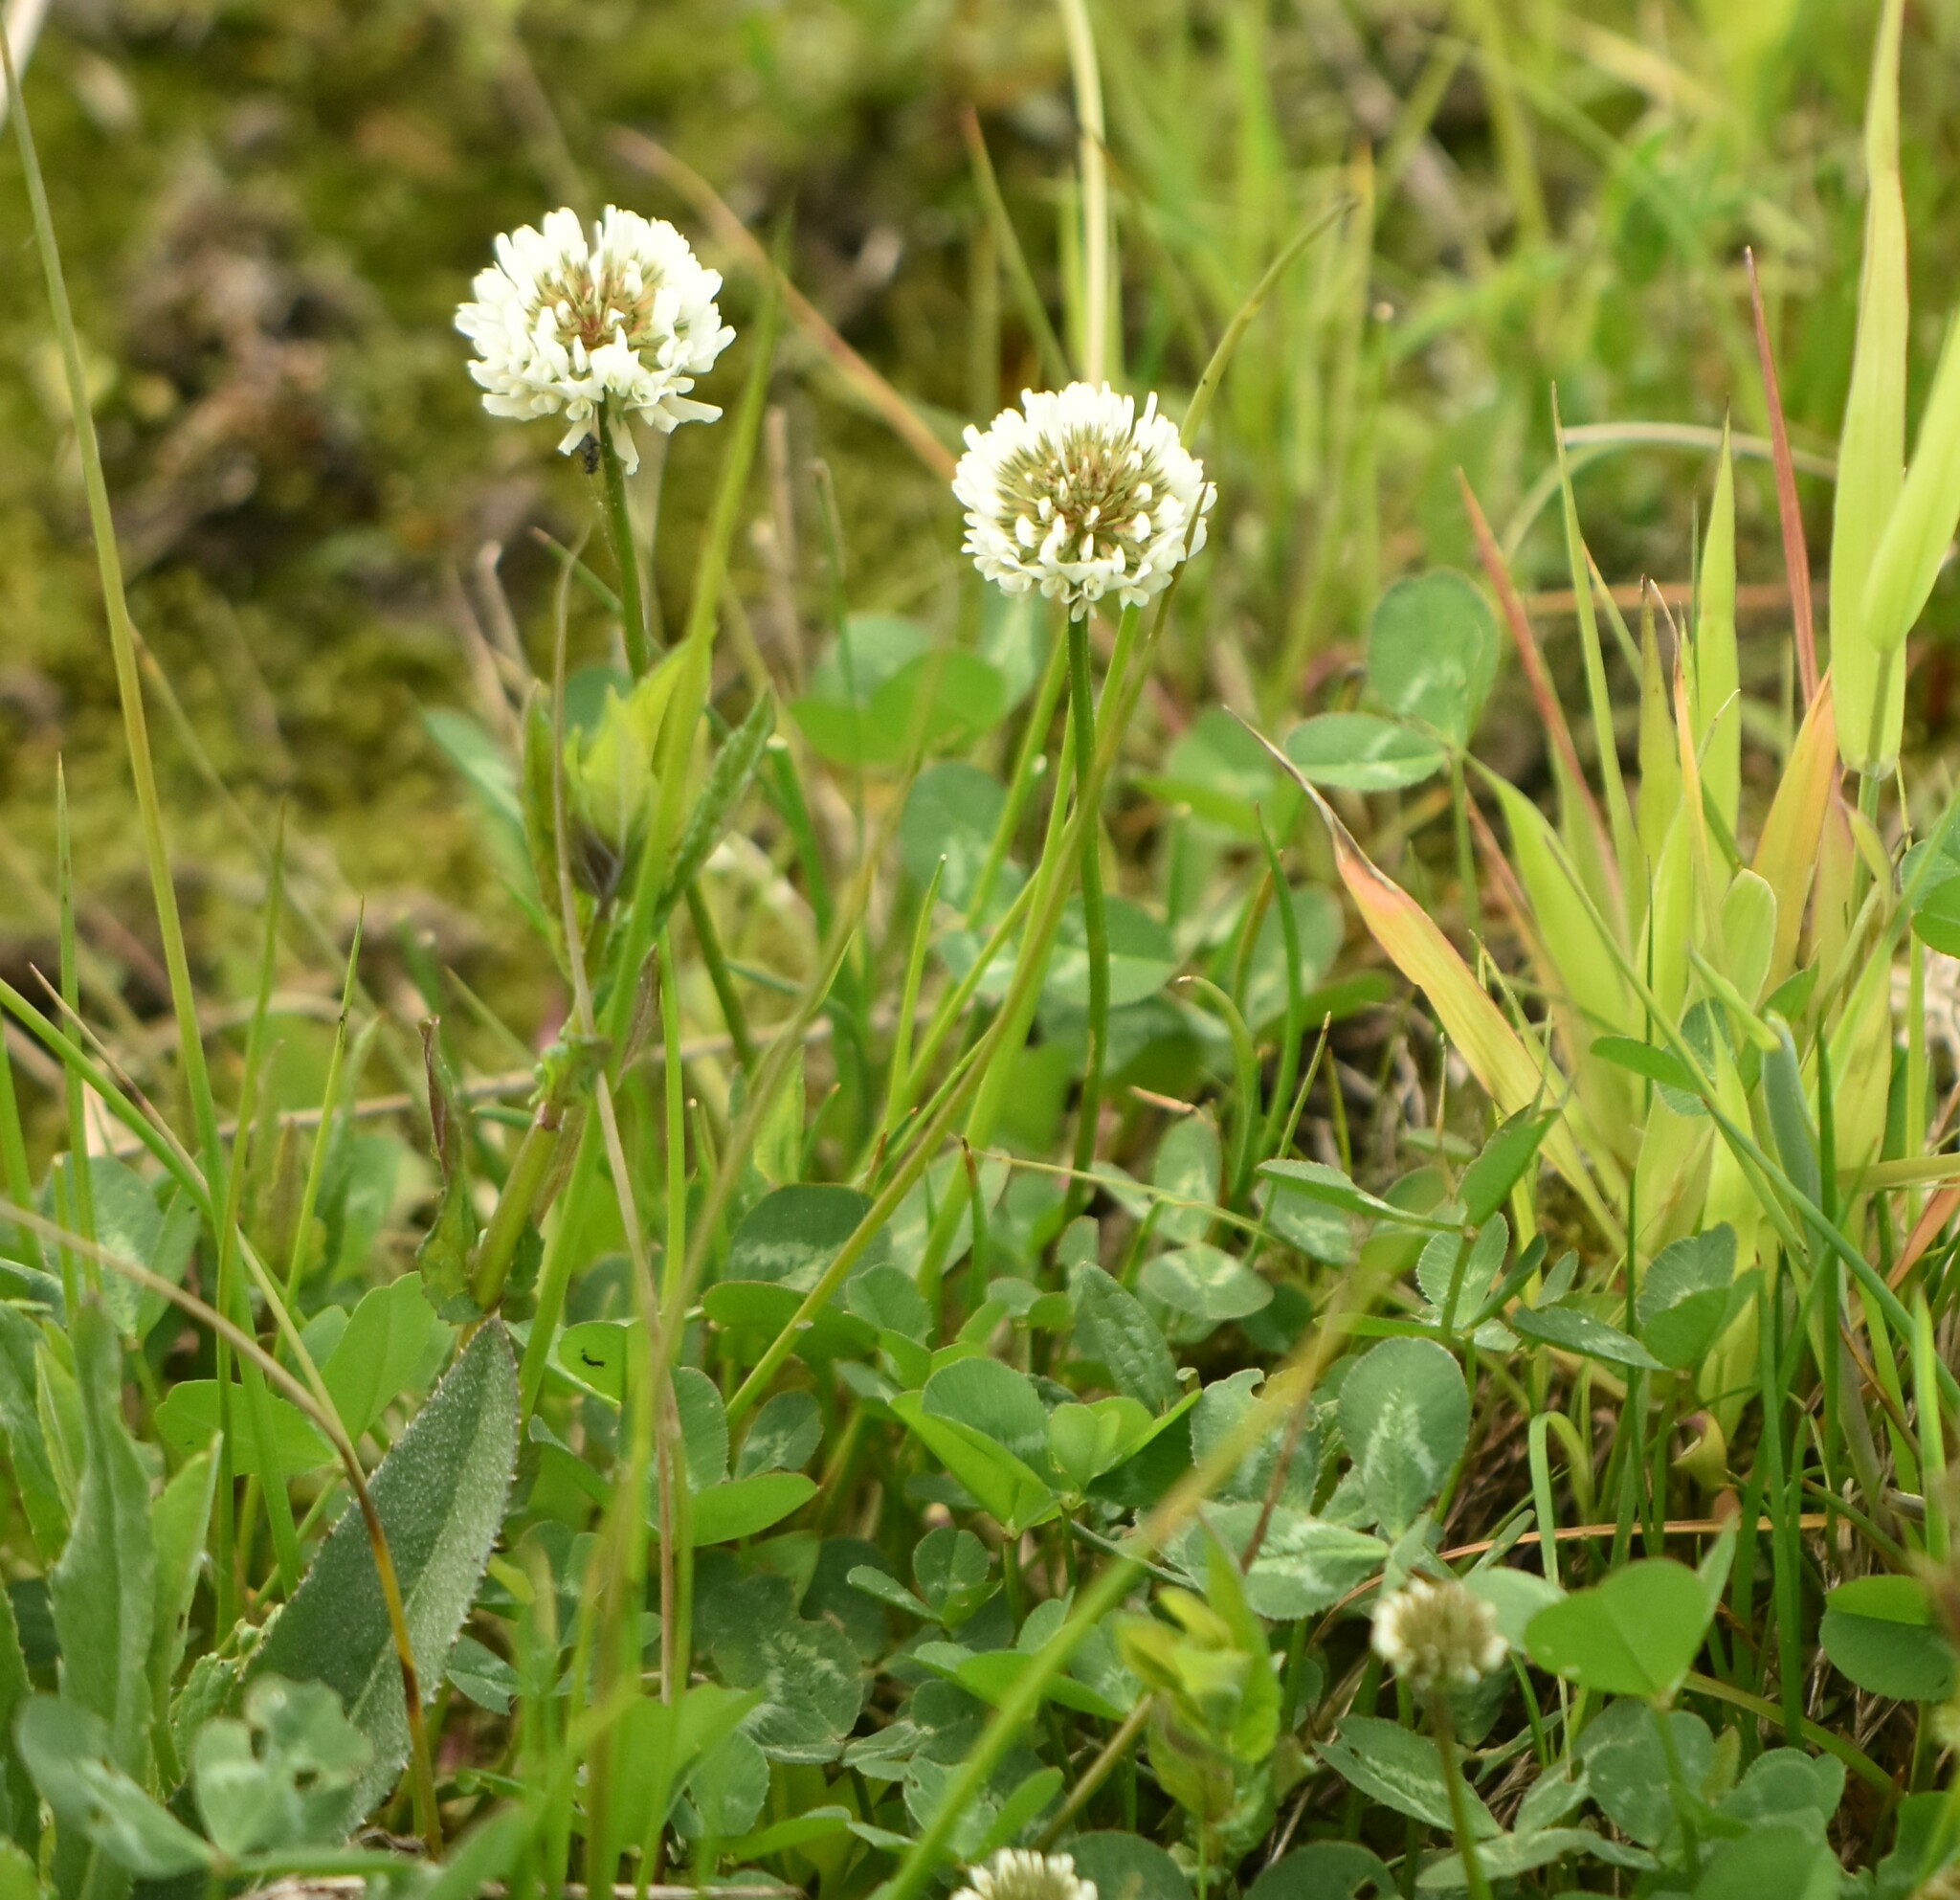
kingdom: Plantae
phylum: Tracheophyta
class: Magnoliopsida
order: Fabales
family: Fabaceae
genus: Trifolium
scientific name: Trifolium repens
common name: White clover
